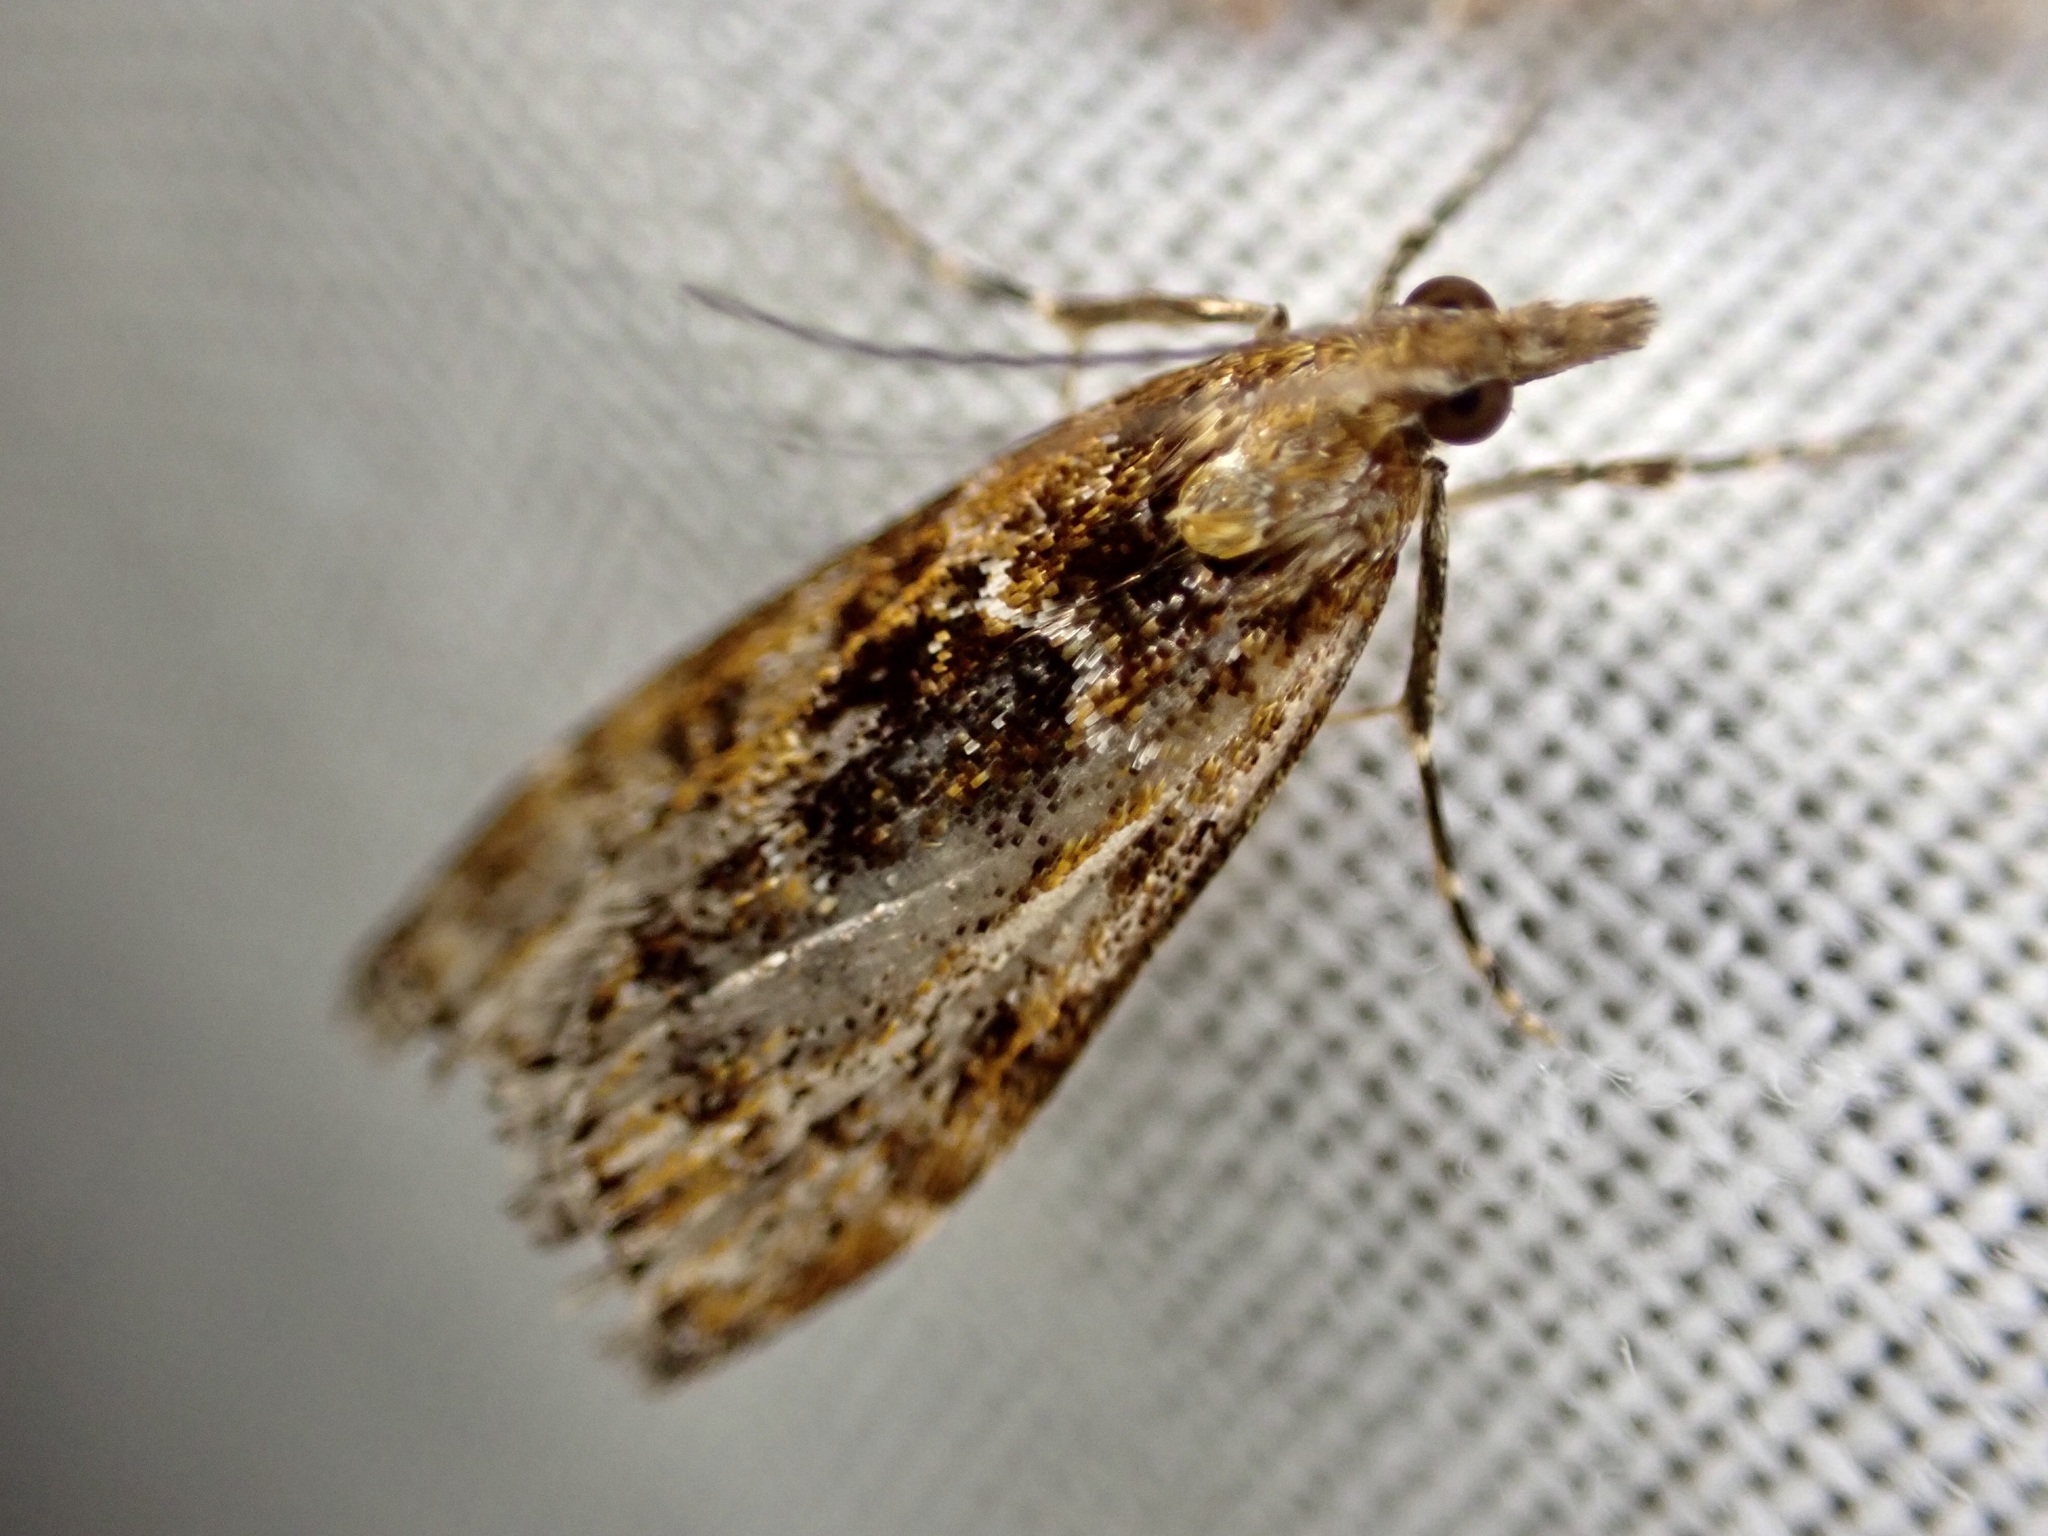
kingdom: Animalia
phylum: Arthropoda
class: Insecta
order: Lepidoptera
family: Crambidae
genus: Scoparia
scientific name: Scoparia animosa
